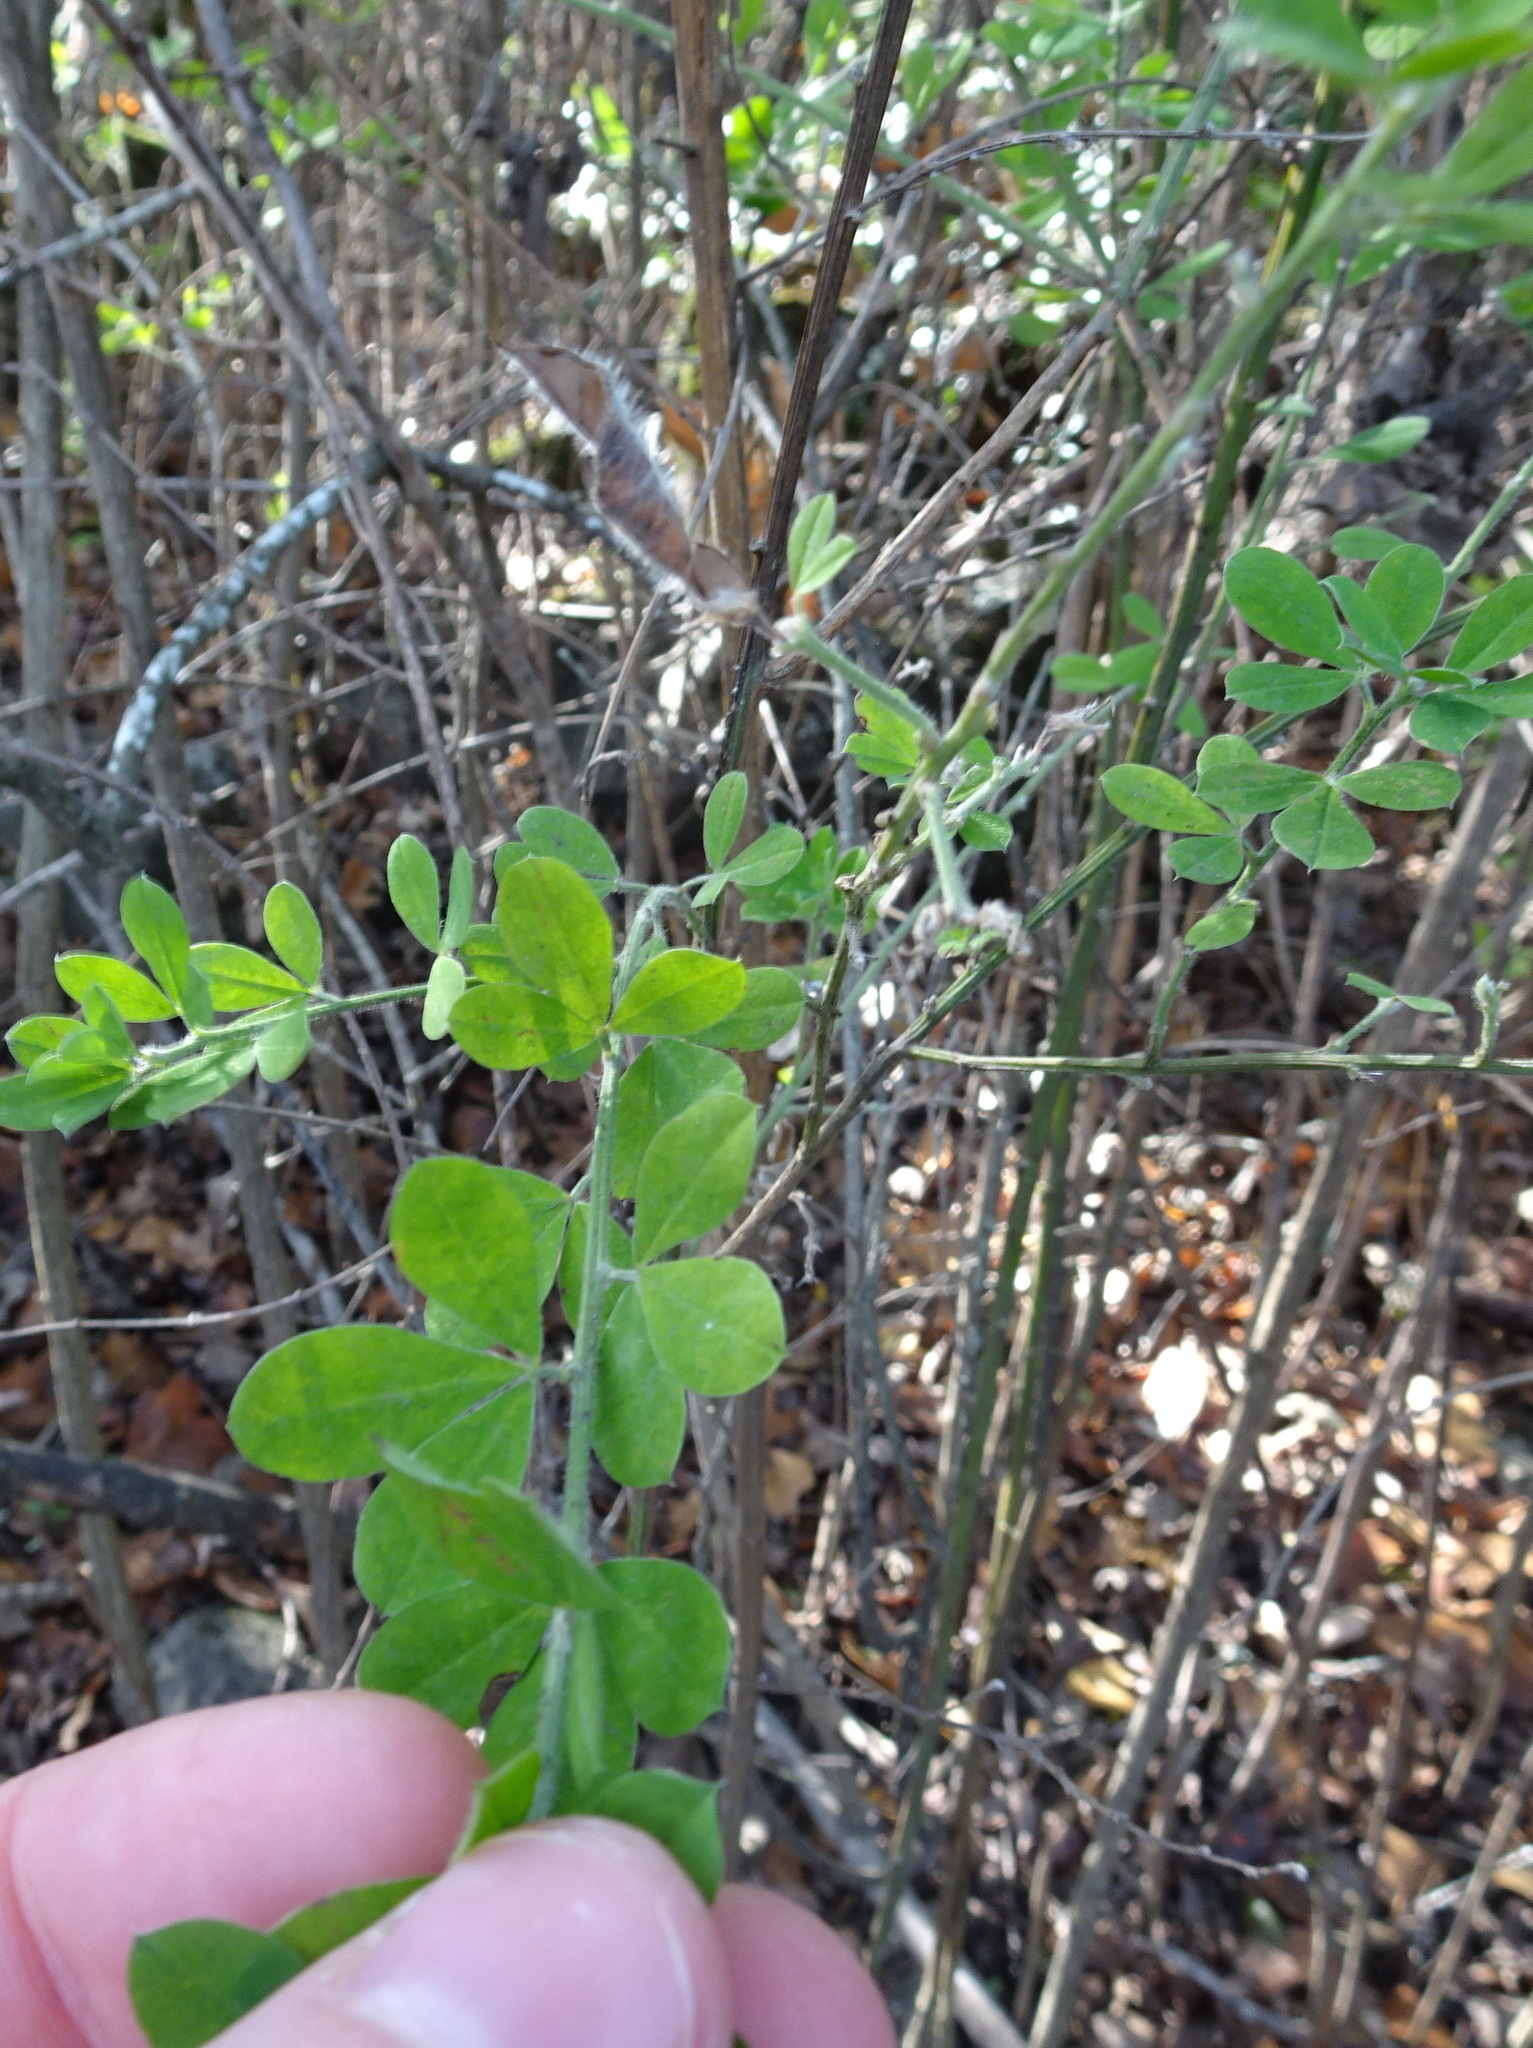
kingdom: Plantae
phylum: Tracheophyta
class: Magnoliopsida
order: Fabales
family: Fabaceae
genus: Genista
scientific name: Genista monspessulana
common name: Montpellier broom
